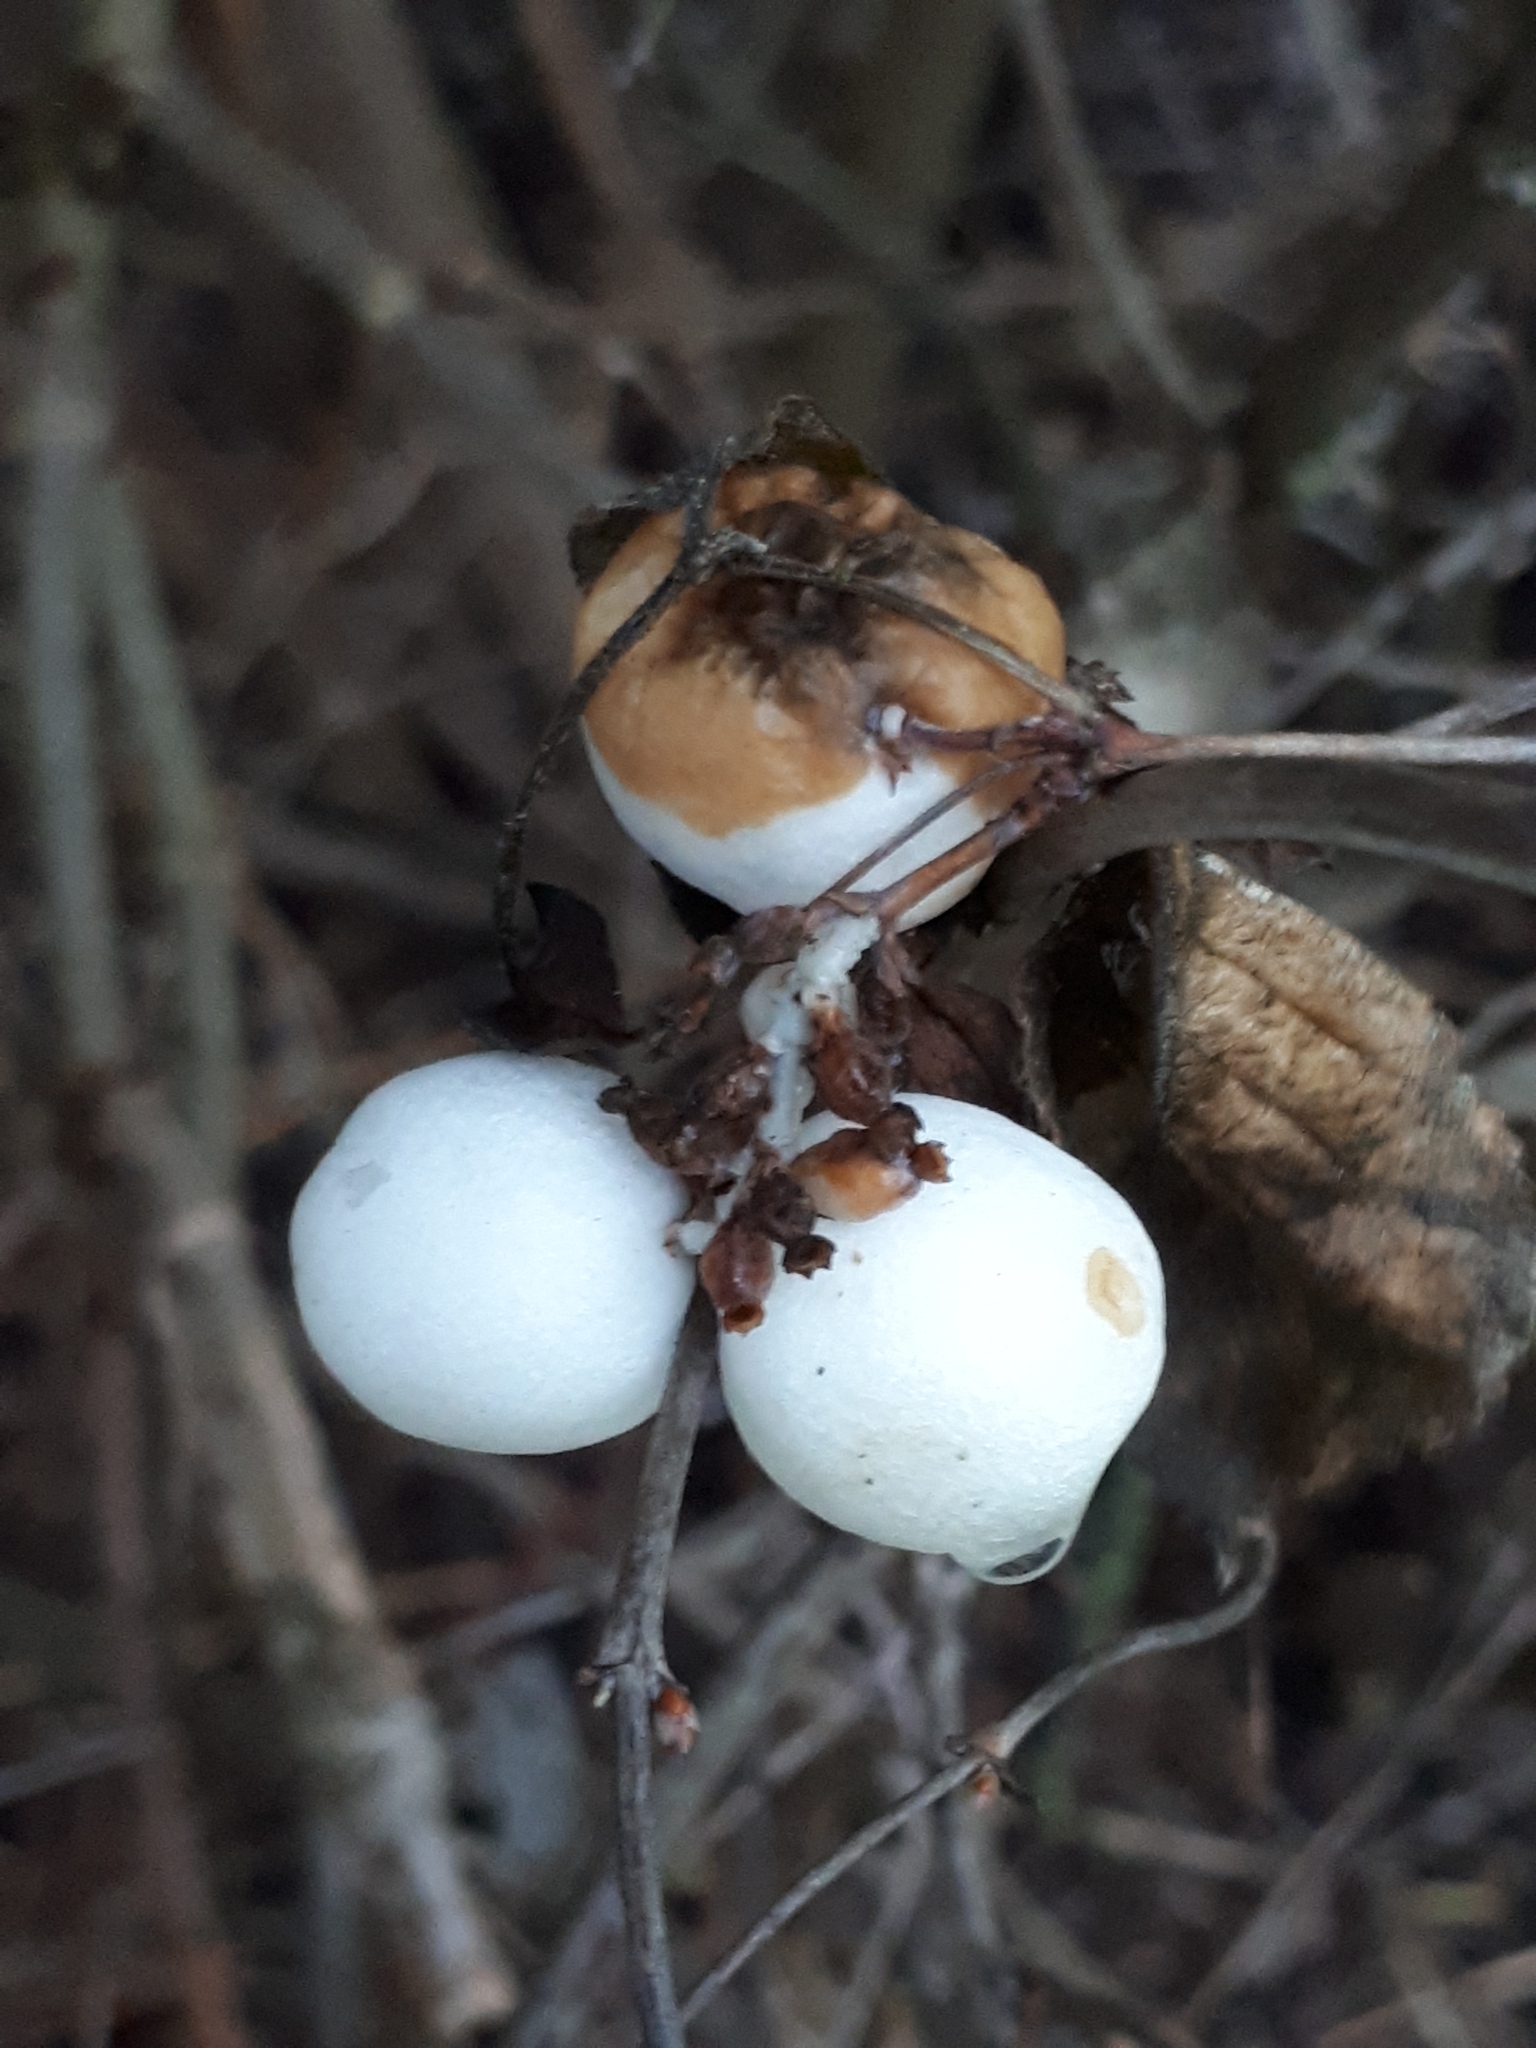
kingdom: Plantae
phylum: Tracheophyta
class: Magnoliopsida
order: Dipsacales
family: Caprifoliaceae
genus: Symphoricarpos
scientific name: Symphoricarpos albus
